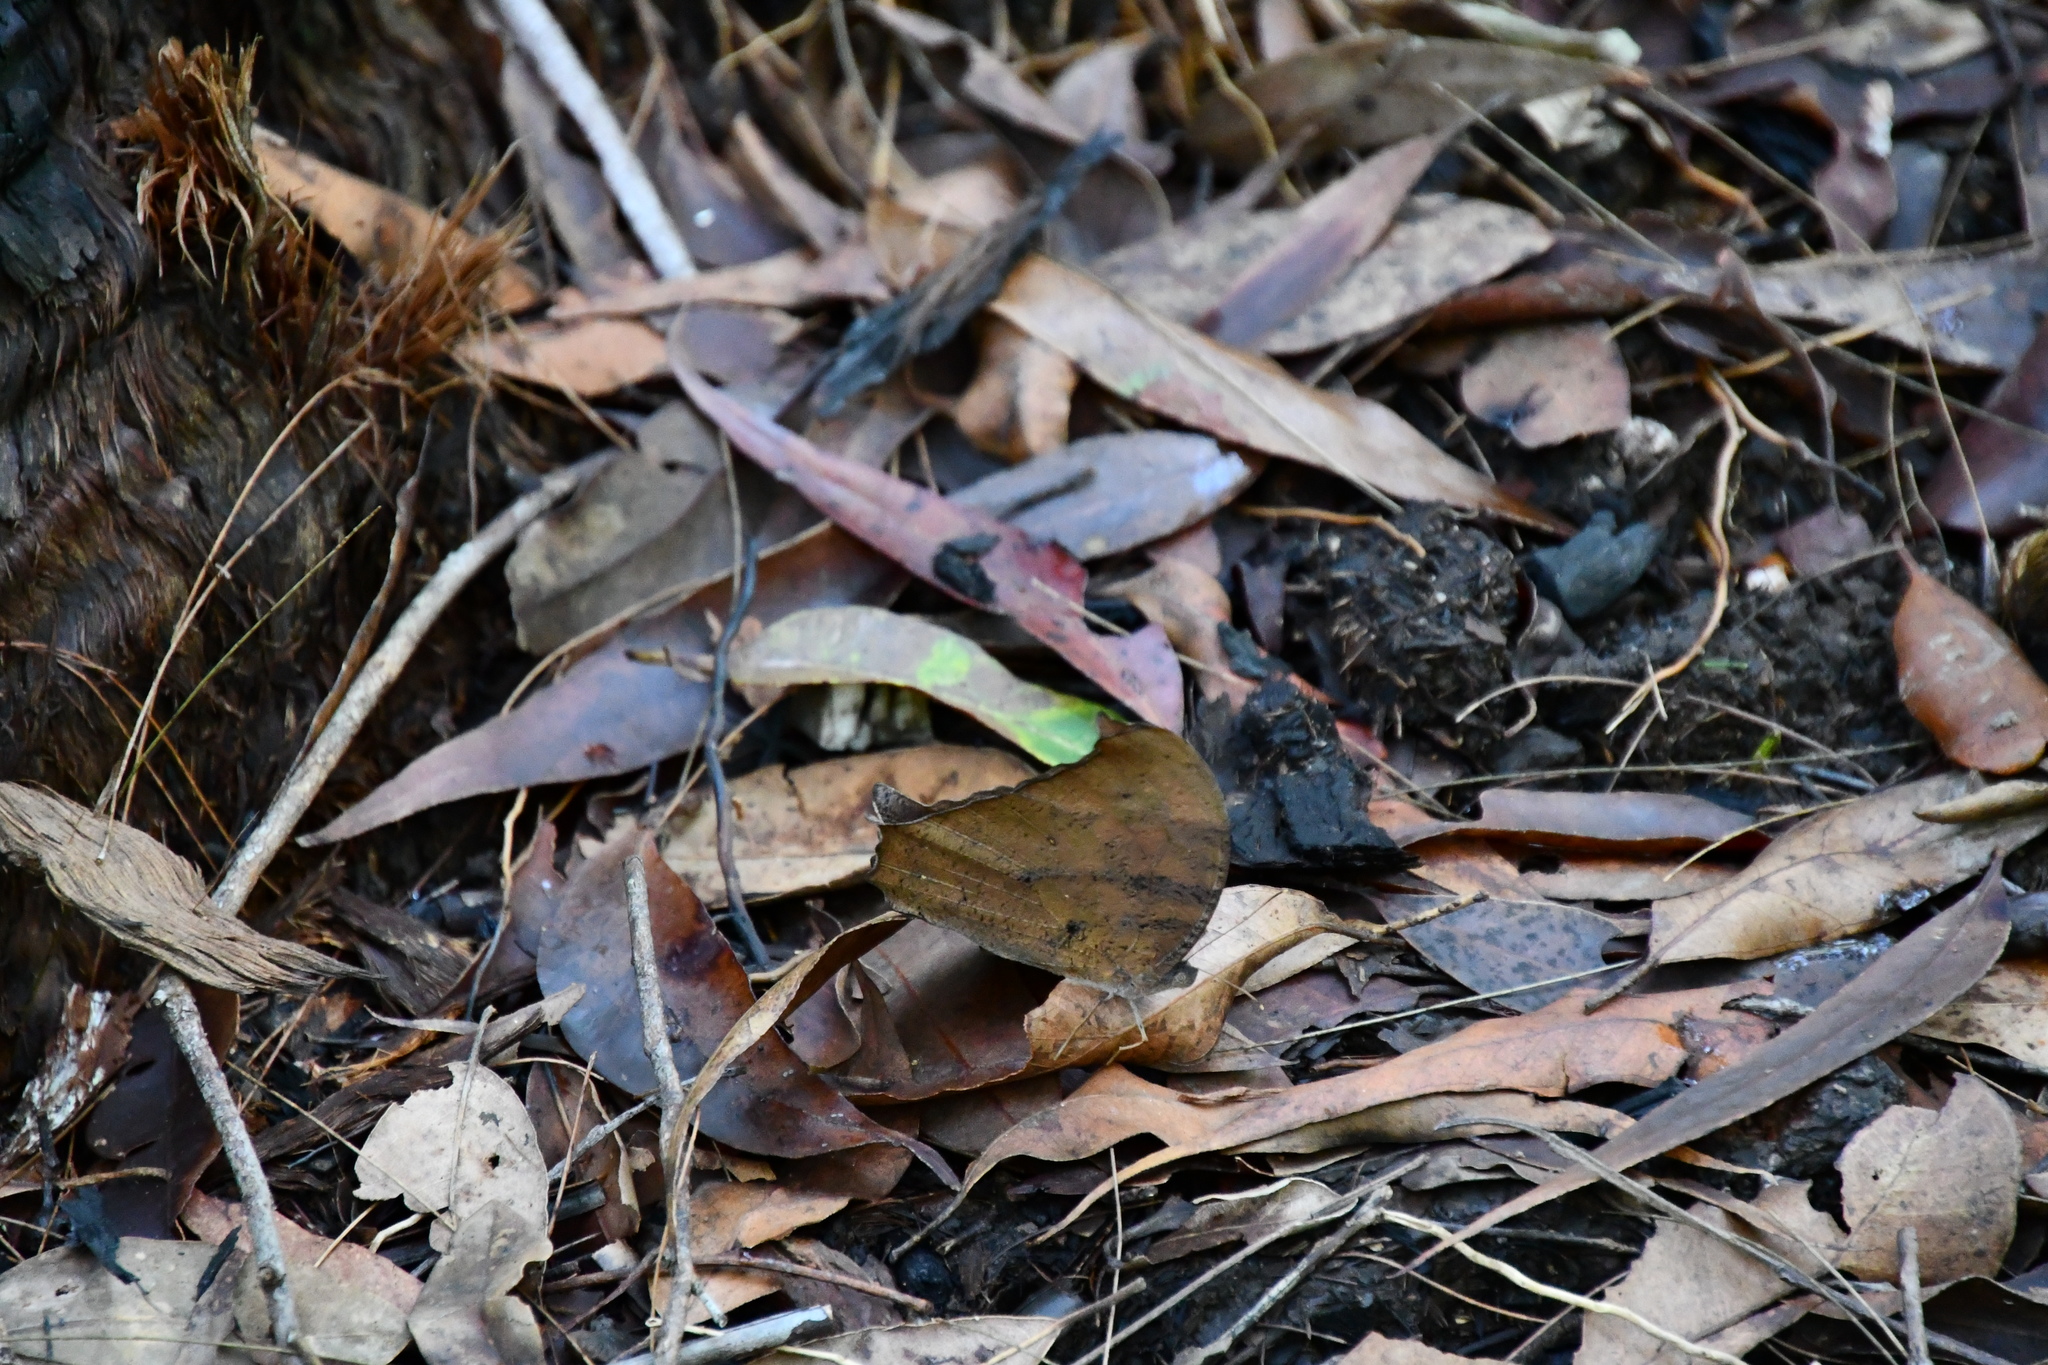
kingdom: Animalia
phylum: Arthropoda
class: Insecta
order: Lepidoptera
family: Nymphalidae
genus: Melanitis
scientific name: Melanitis leda
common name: Twilight brown
